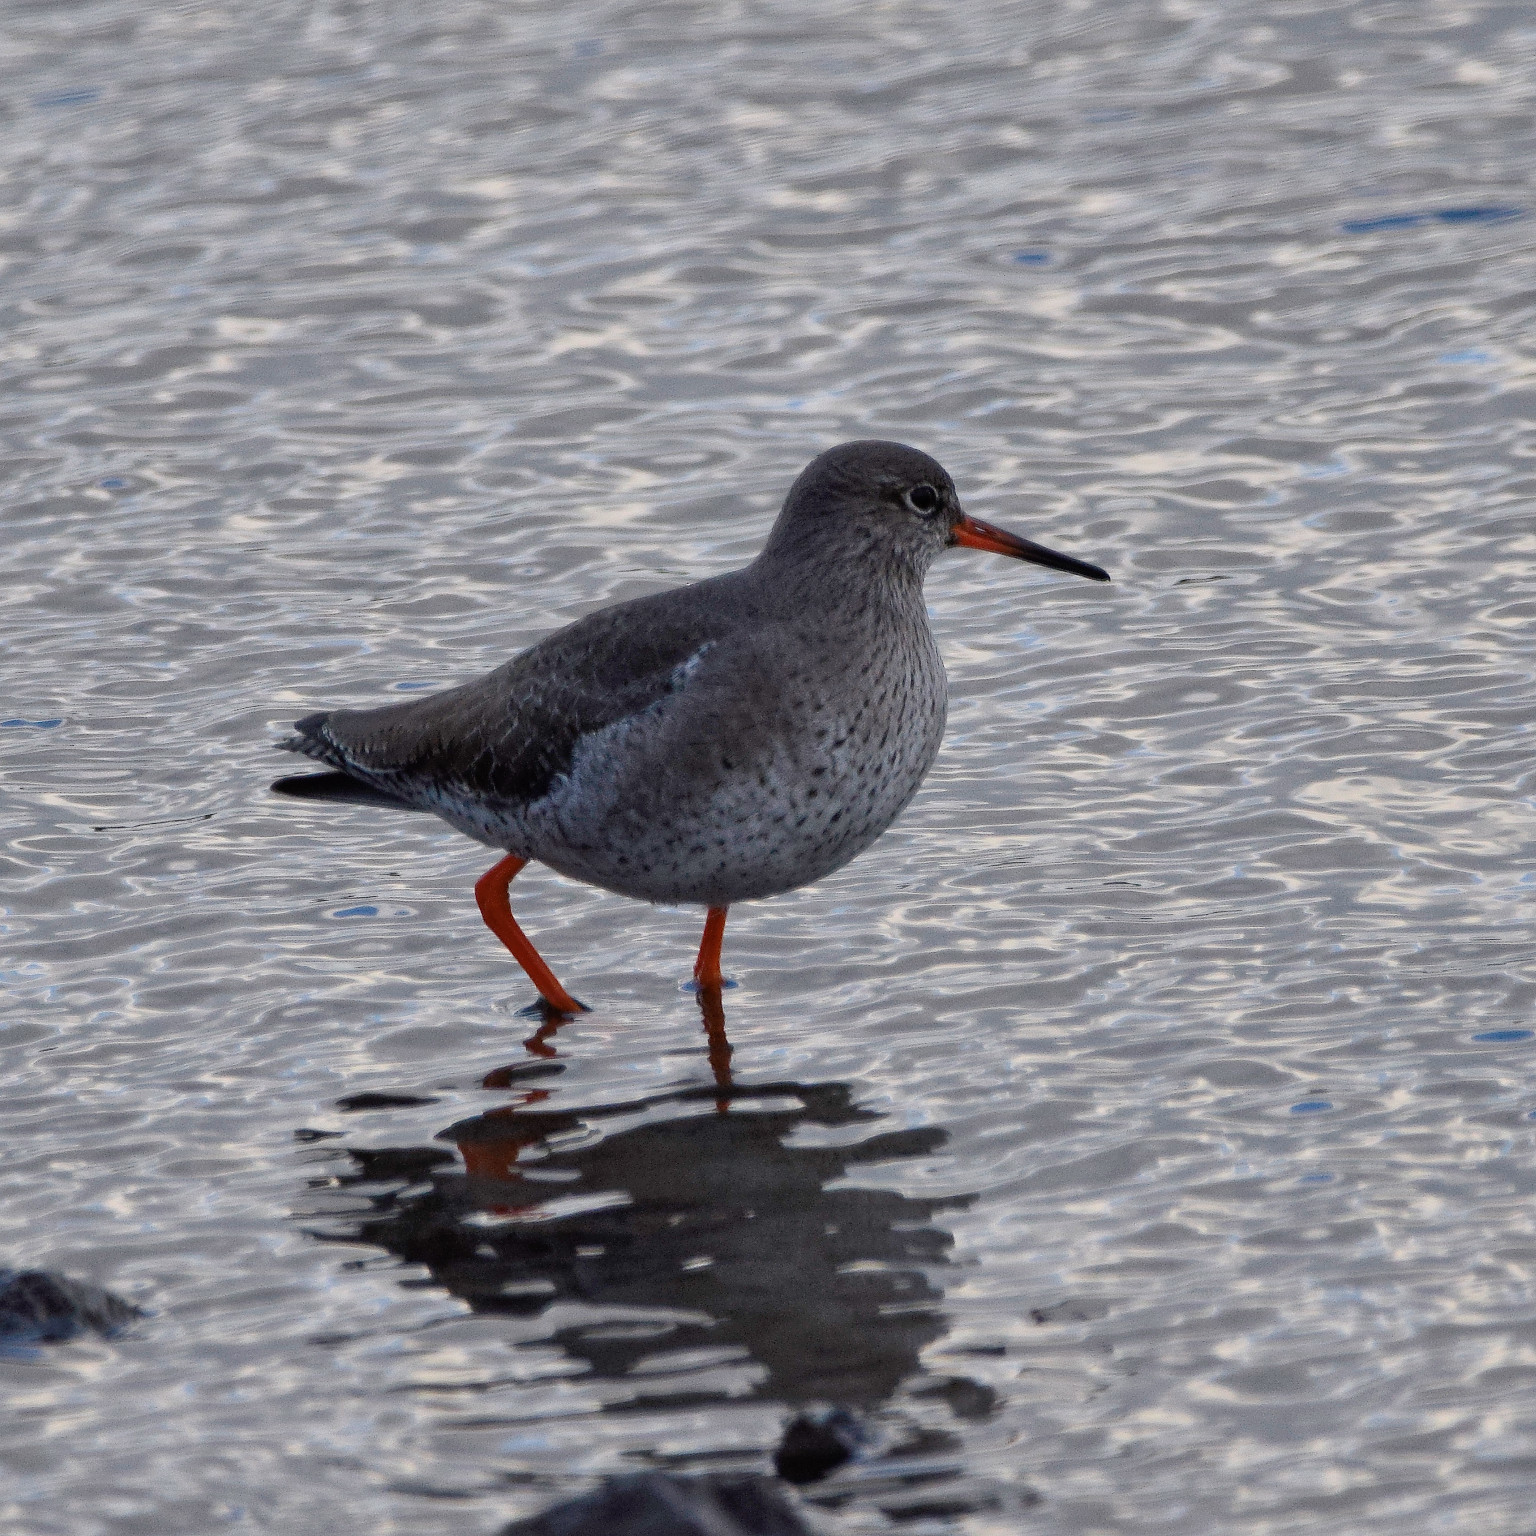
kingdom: Animalia
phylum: Chordata
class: Aves
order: Charadriiformes
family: Scolopacidae
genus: Tringa
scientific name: Tringa totanus
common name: Common redshank
